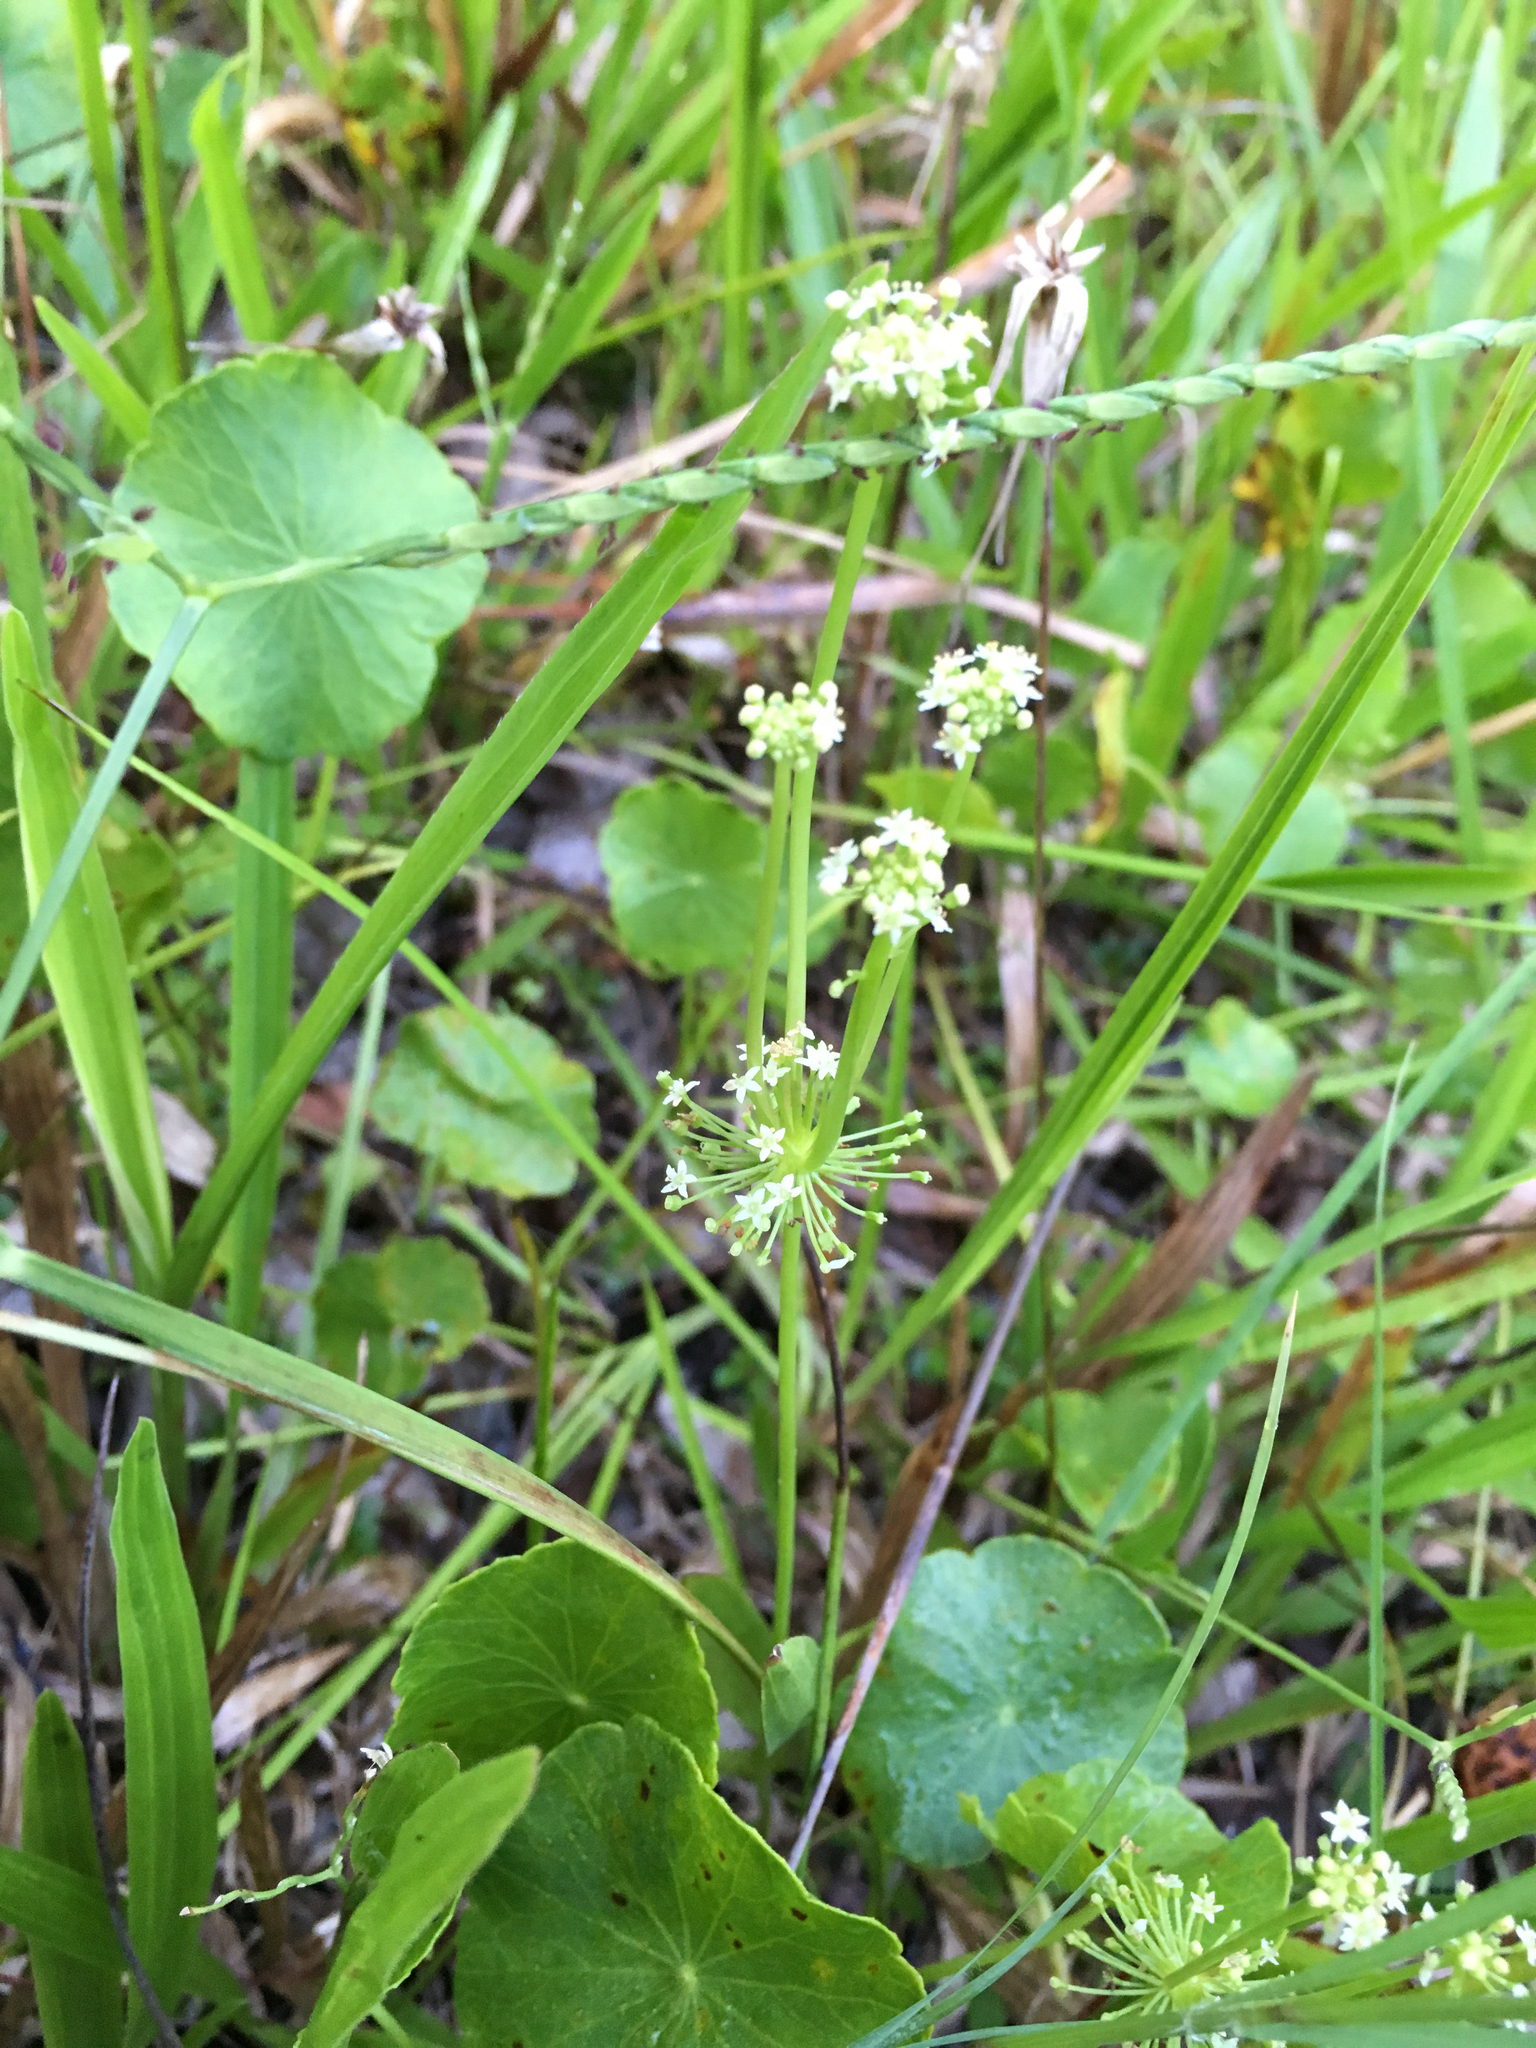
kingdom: Plantae
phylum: Tracheophyta
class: Magnoliopsida
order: Apiales
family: Araliaceae
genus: Hydrocotyle
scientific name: Hydrocotyle bonariensis
